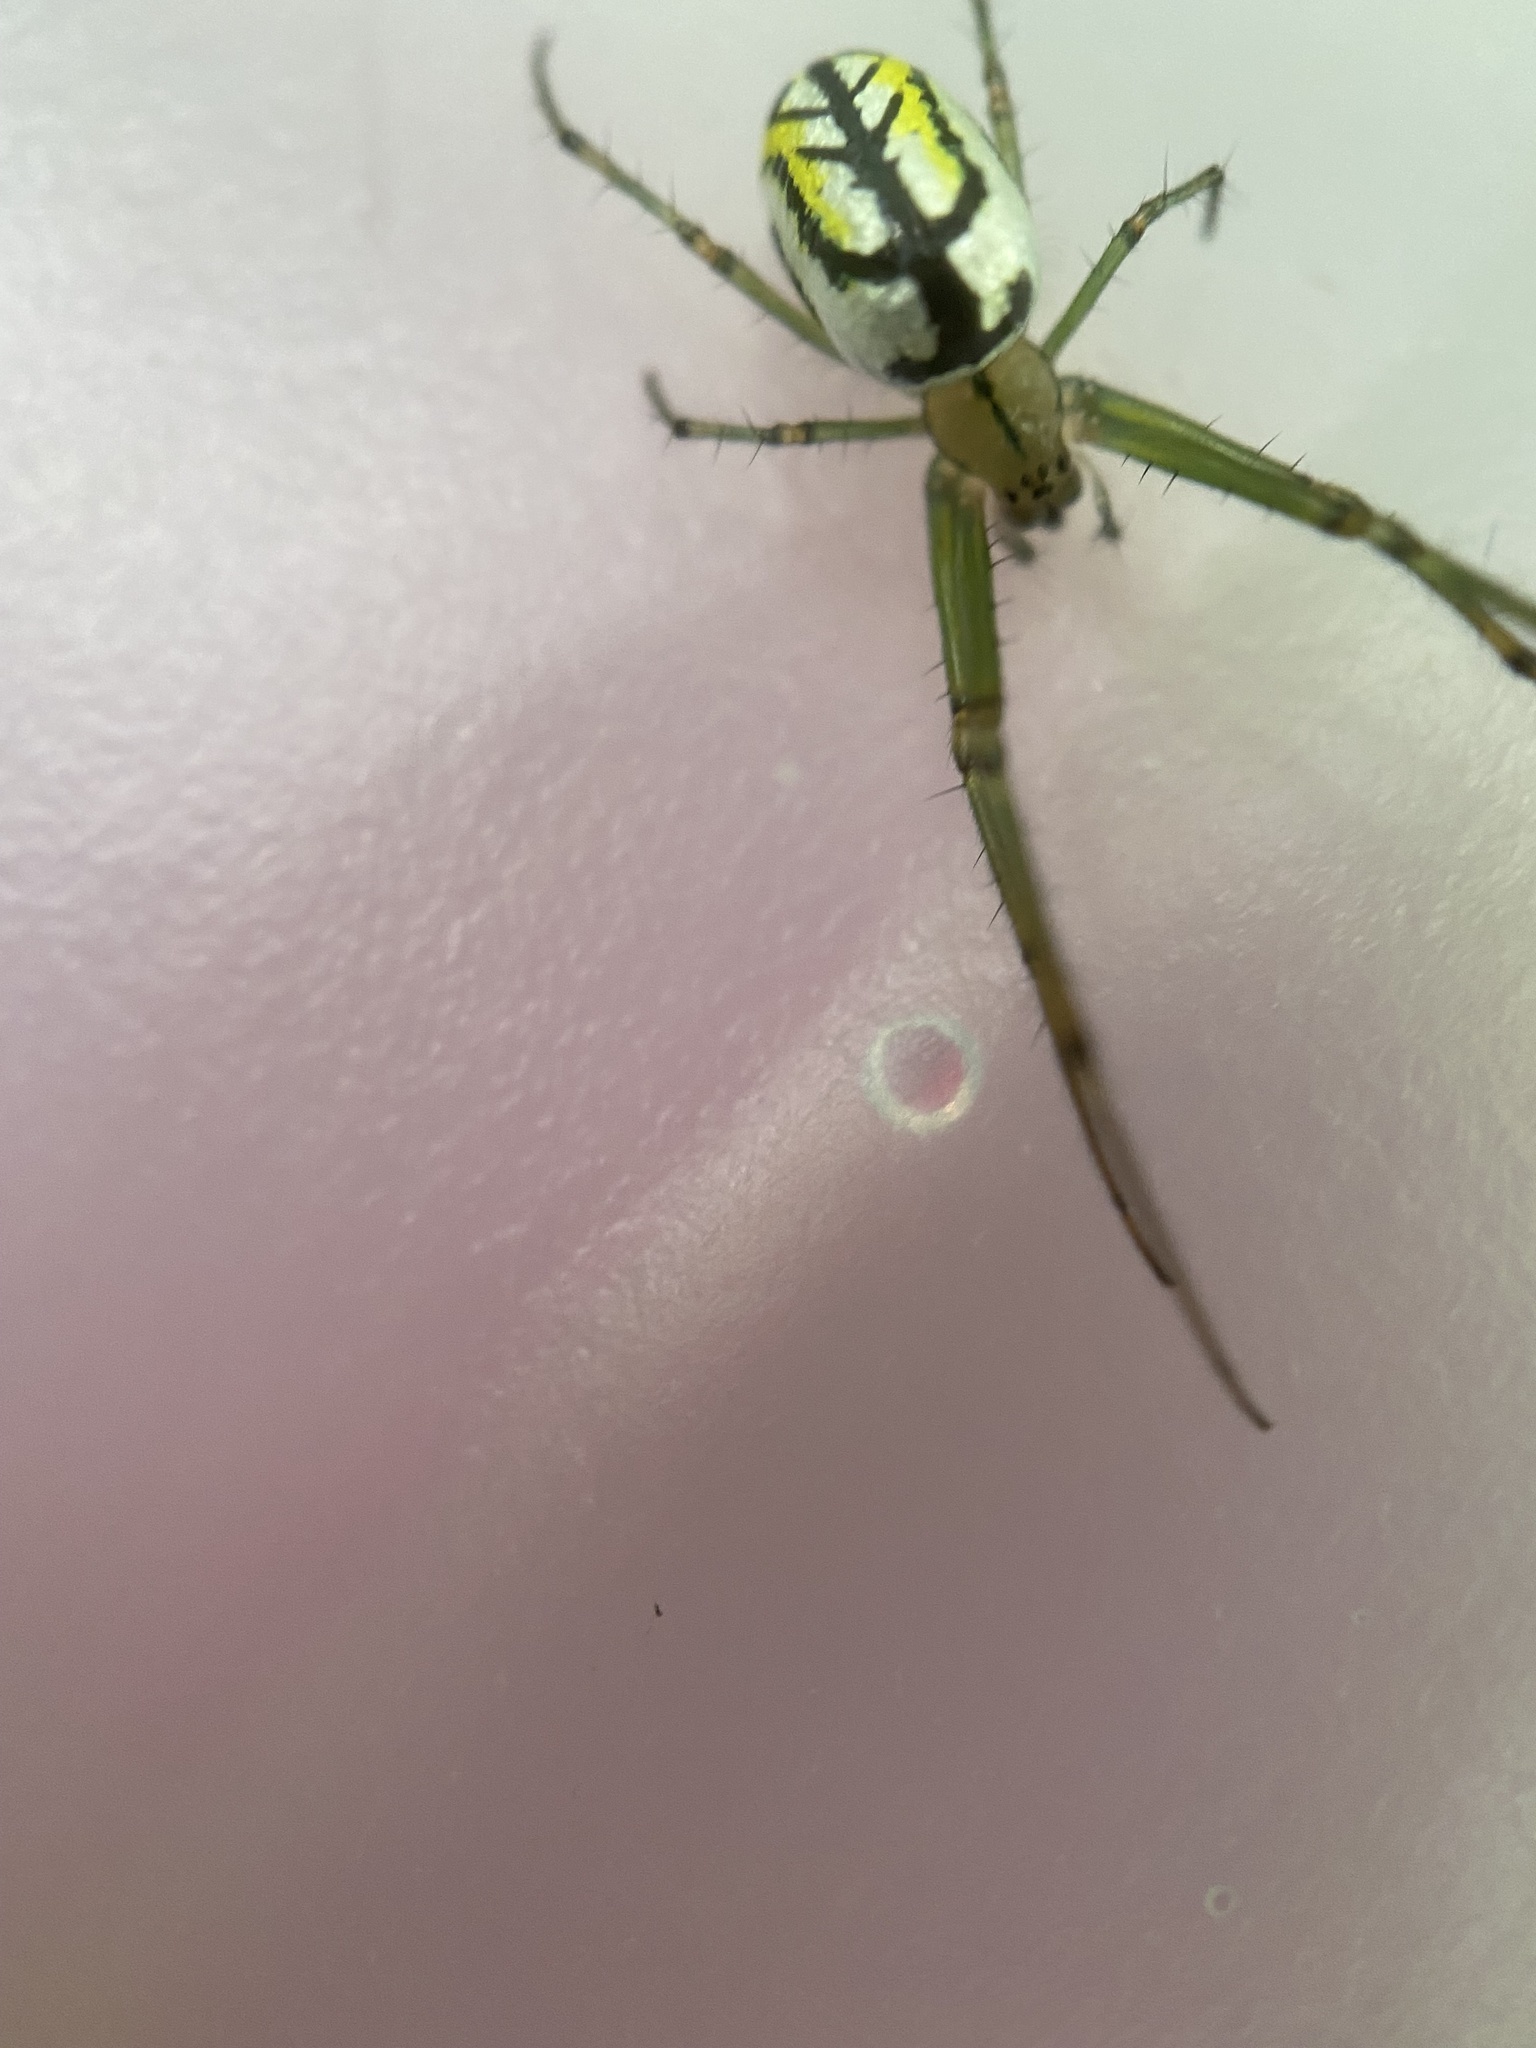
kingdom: Animalia
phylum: Arthropoda
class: Arachnida
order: Araneae
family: Tetragnathidae
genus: Leucauge
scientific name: Leucauge venusta
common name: Longjawed orb weavers
